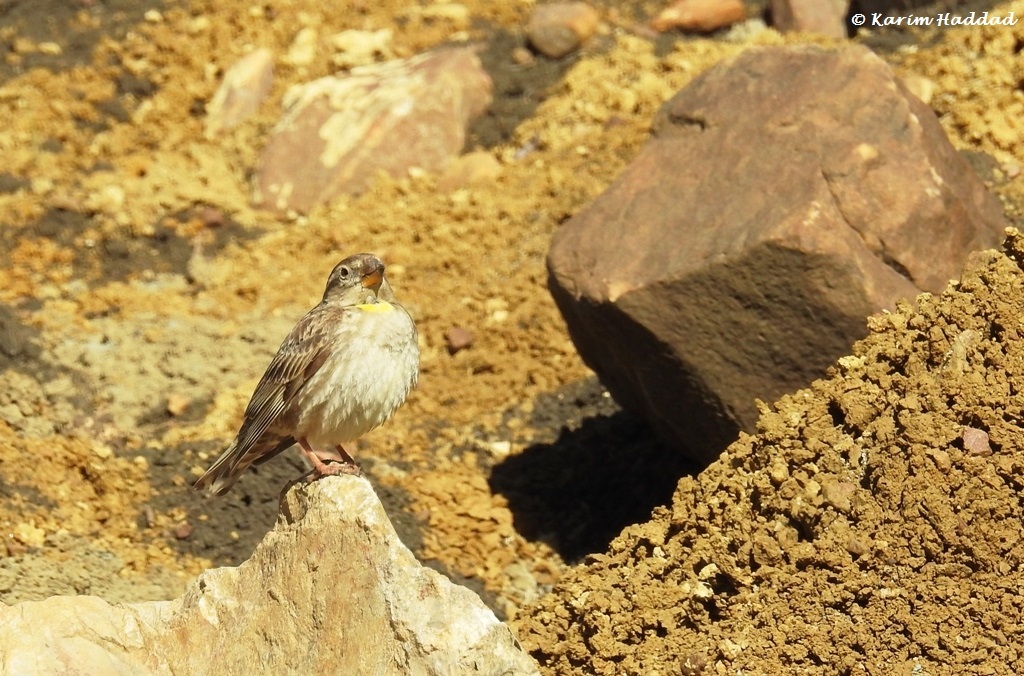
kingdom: Animalia
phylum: Chordata
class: Aves
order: Passeriformes
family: Passeridae
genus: Petronia
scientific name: Petronia petronia
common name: Rock sparrow
